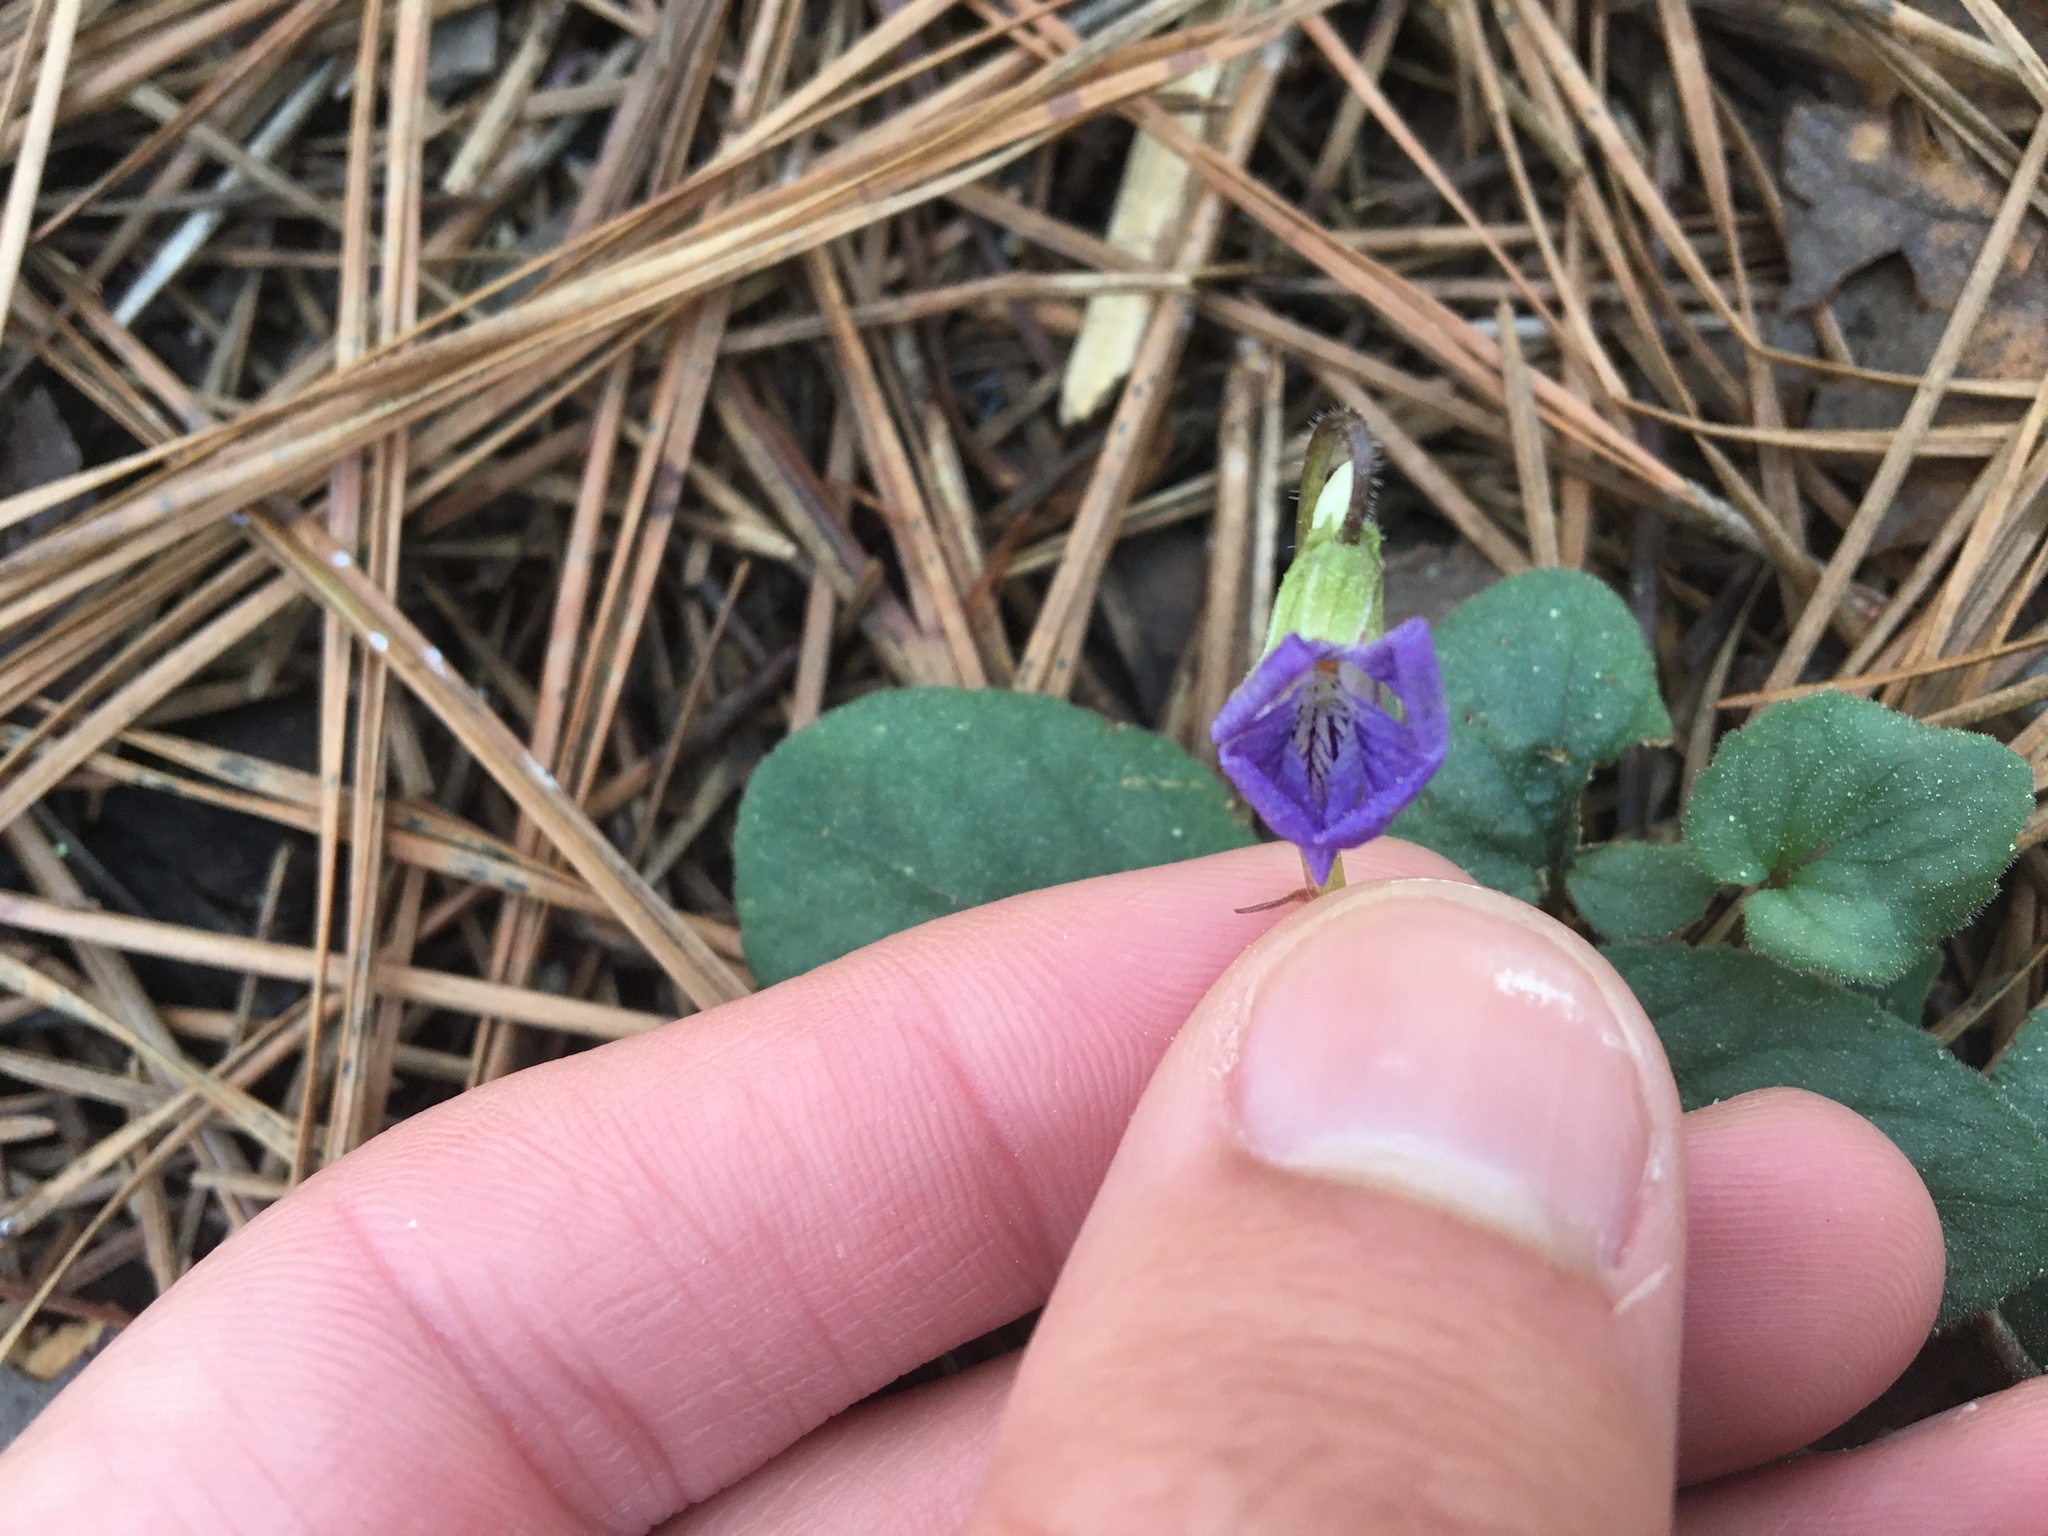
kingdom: Plantae
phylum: Tracheophyta
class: Magnoliopsida
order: Malpighiales
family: Violaceae
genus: Viola
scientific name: Viola villosa
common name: Carolina violet
